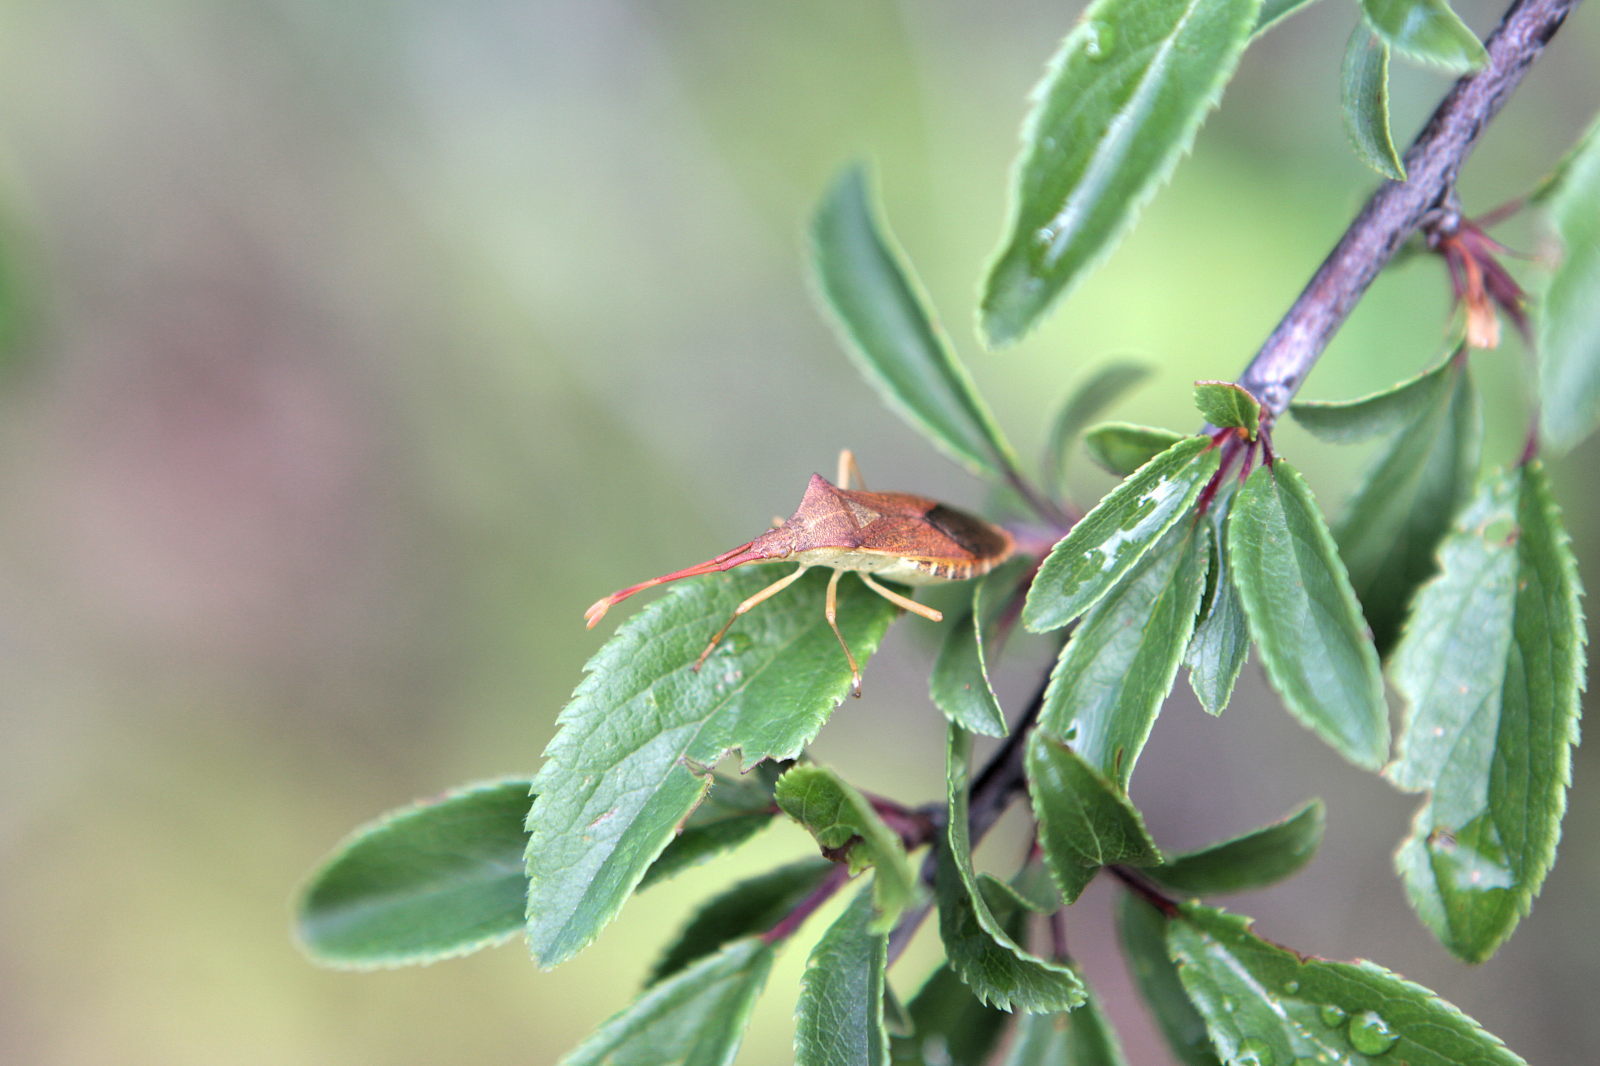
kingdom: Animalia
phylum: Arthropoda
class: Insecta
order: Hemiptera
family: Coreidae
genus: Gonocerus
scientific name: Gonocerus acuteangulatus
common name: Box bug
